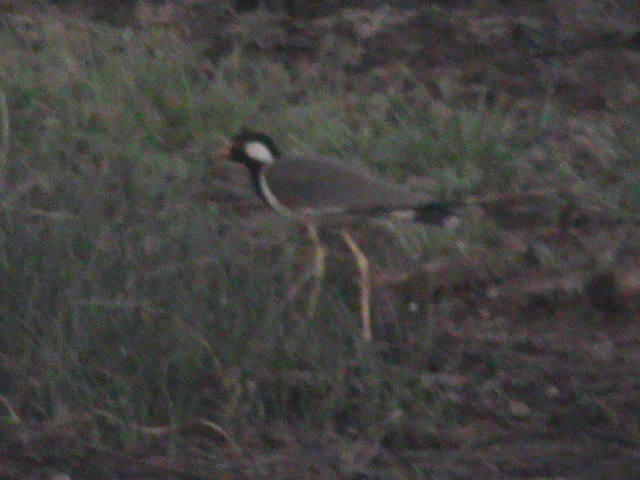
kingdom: Animalia
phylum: Chordata
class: Aves
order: Charadriiformes
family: Charadriidae
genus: Vanellus
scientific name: Vanellus indicus
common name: Red-wattled lapwing
